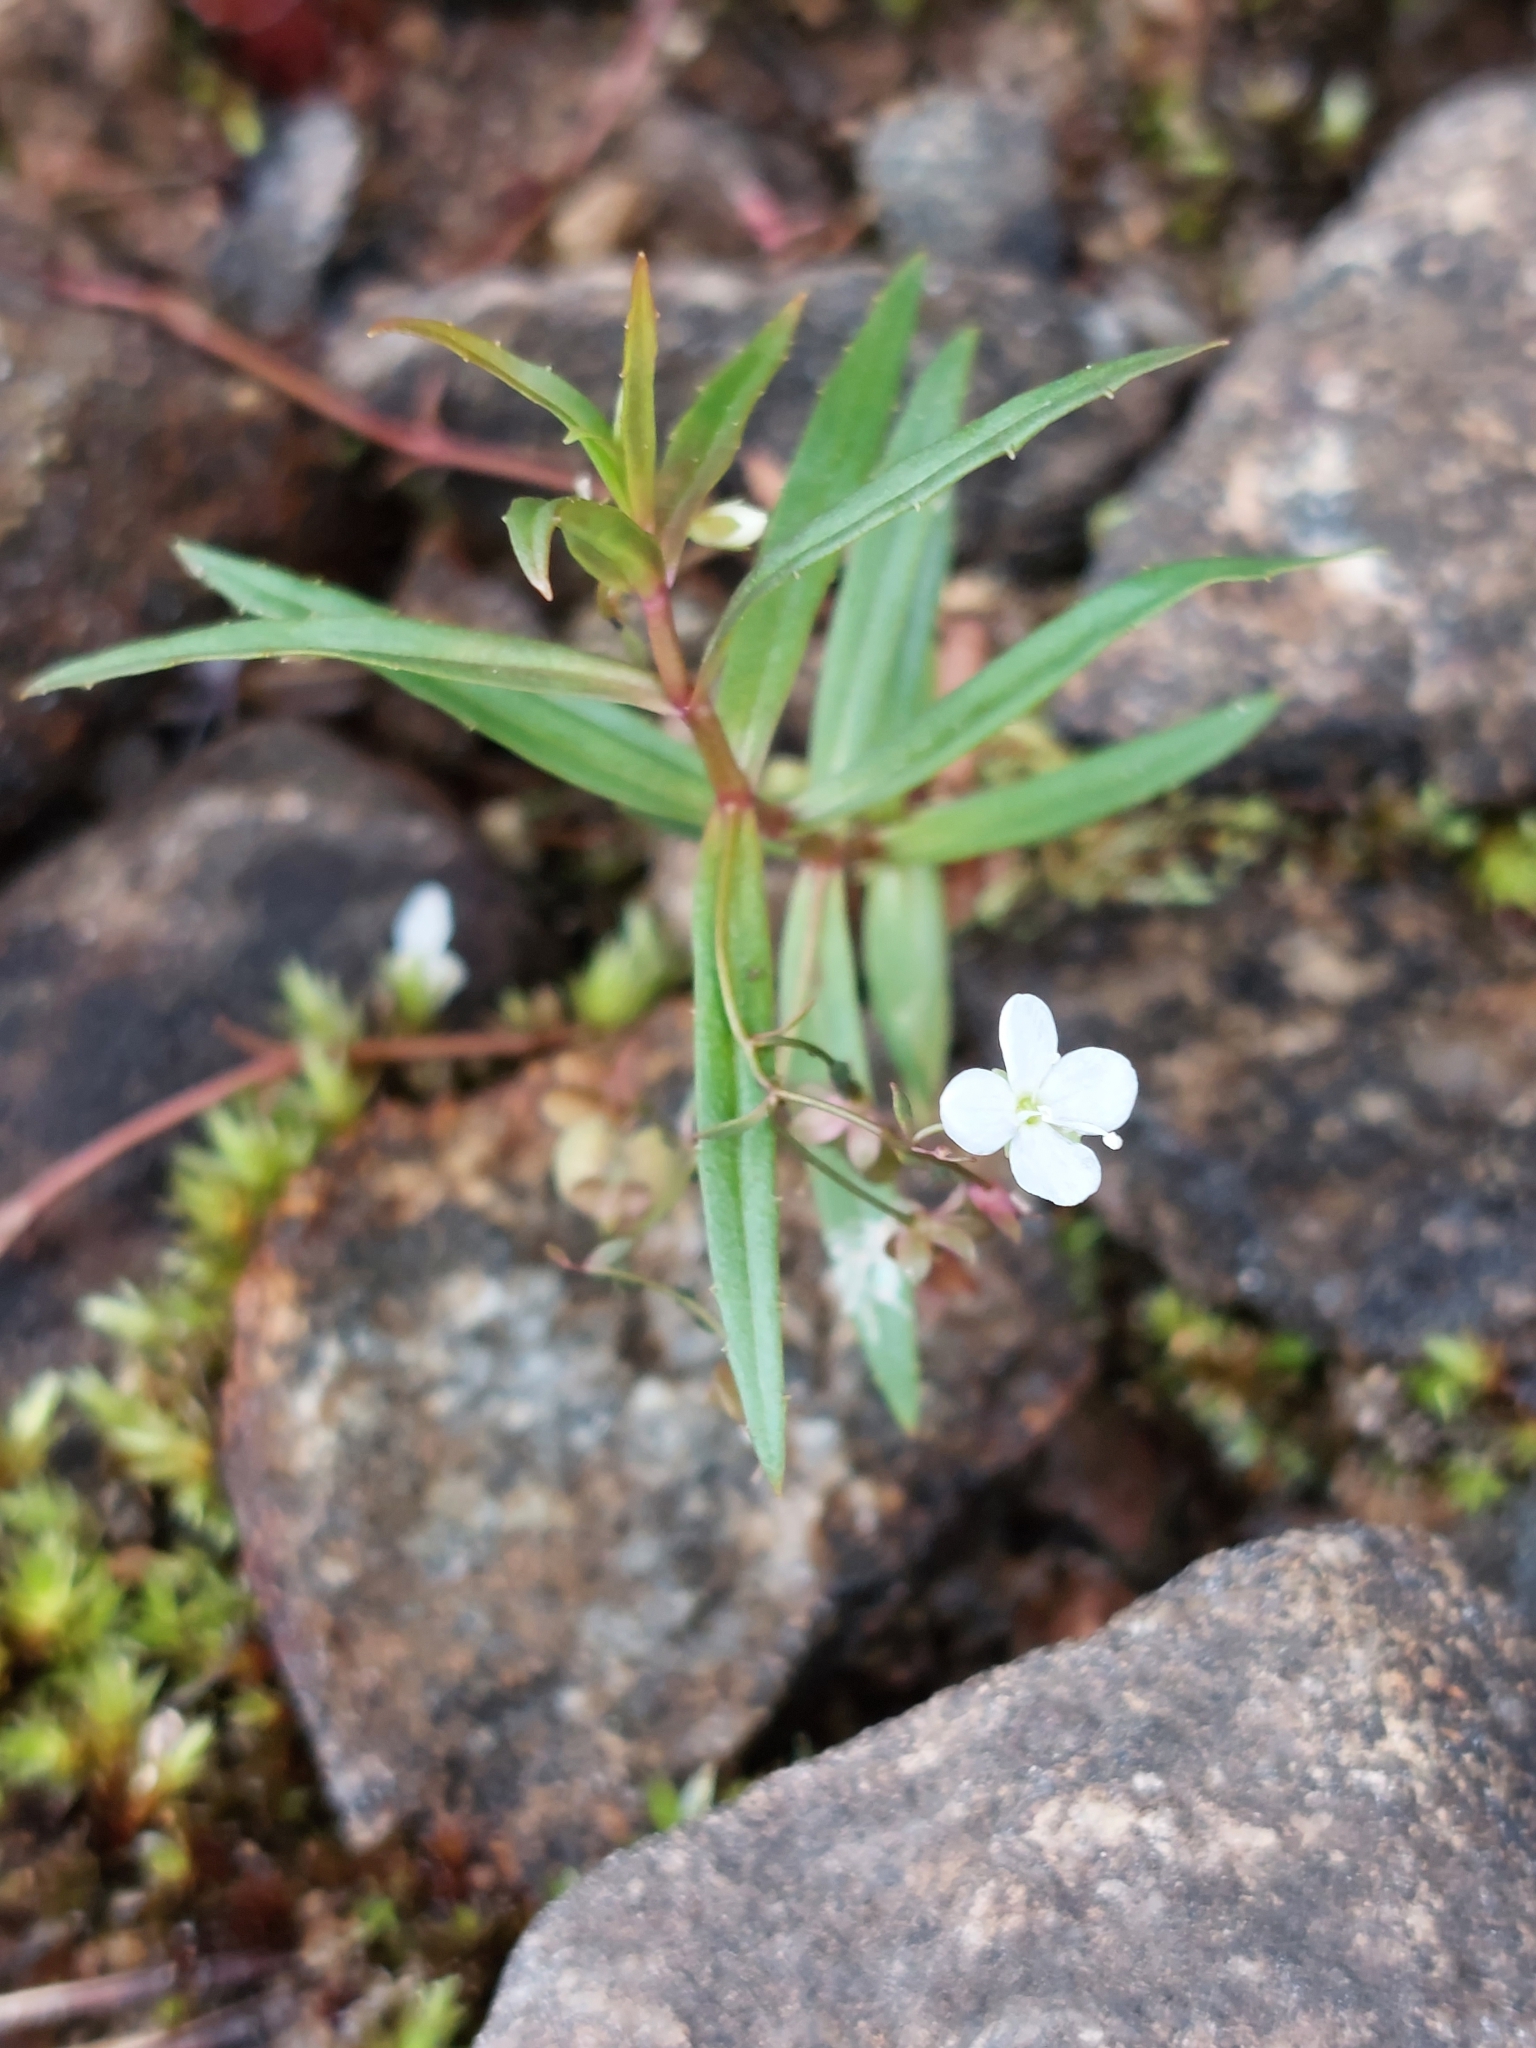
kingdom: Plantae
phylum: Tracheophyta
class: Magnoliopsida
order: Lamiales
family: Plantaginaceae
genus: Veronica
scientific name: Veronica scutellata
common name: Marsh speedwell
